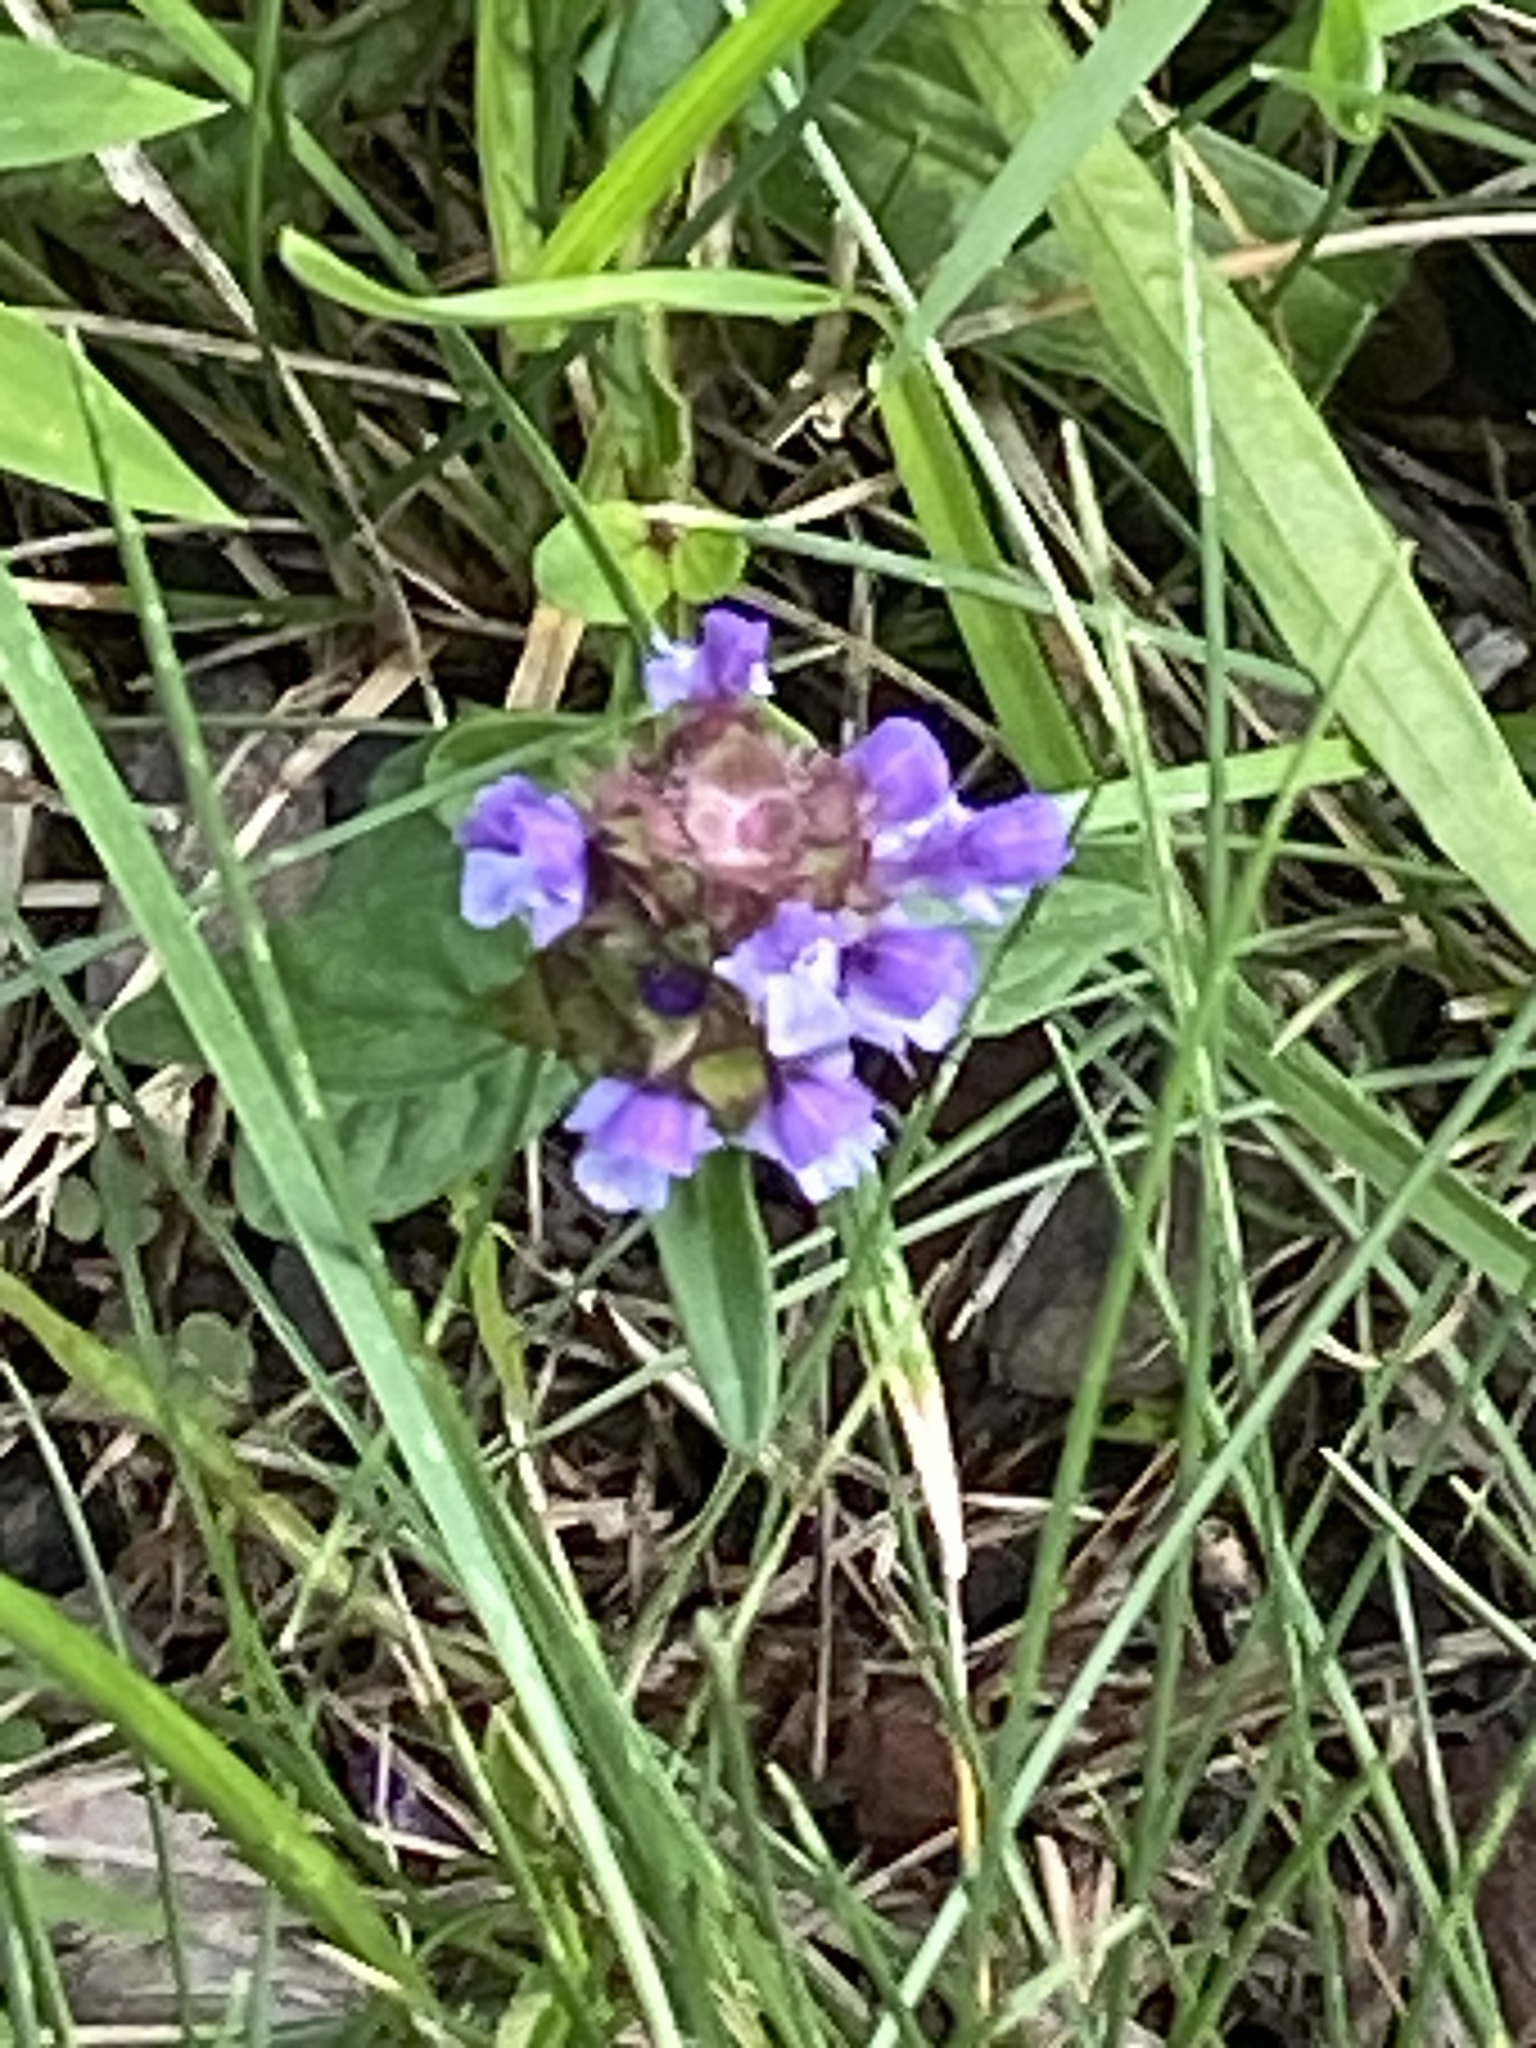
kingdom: Plantae
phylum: Tracheophyta
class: Magnoliopsida
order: Lamiales
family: Lamiaceae
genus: Prunella
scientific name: Prunella vulgaris
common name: Heal-all
